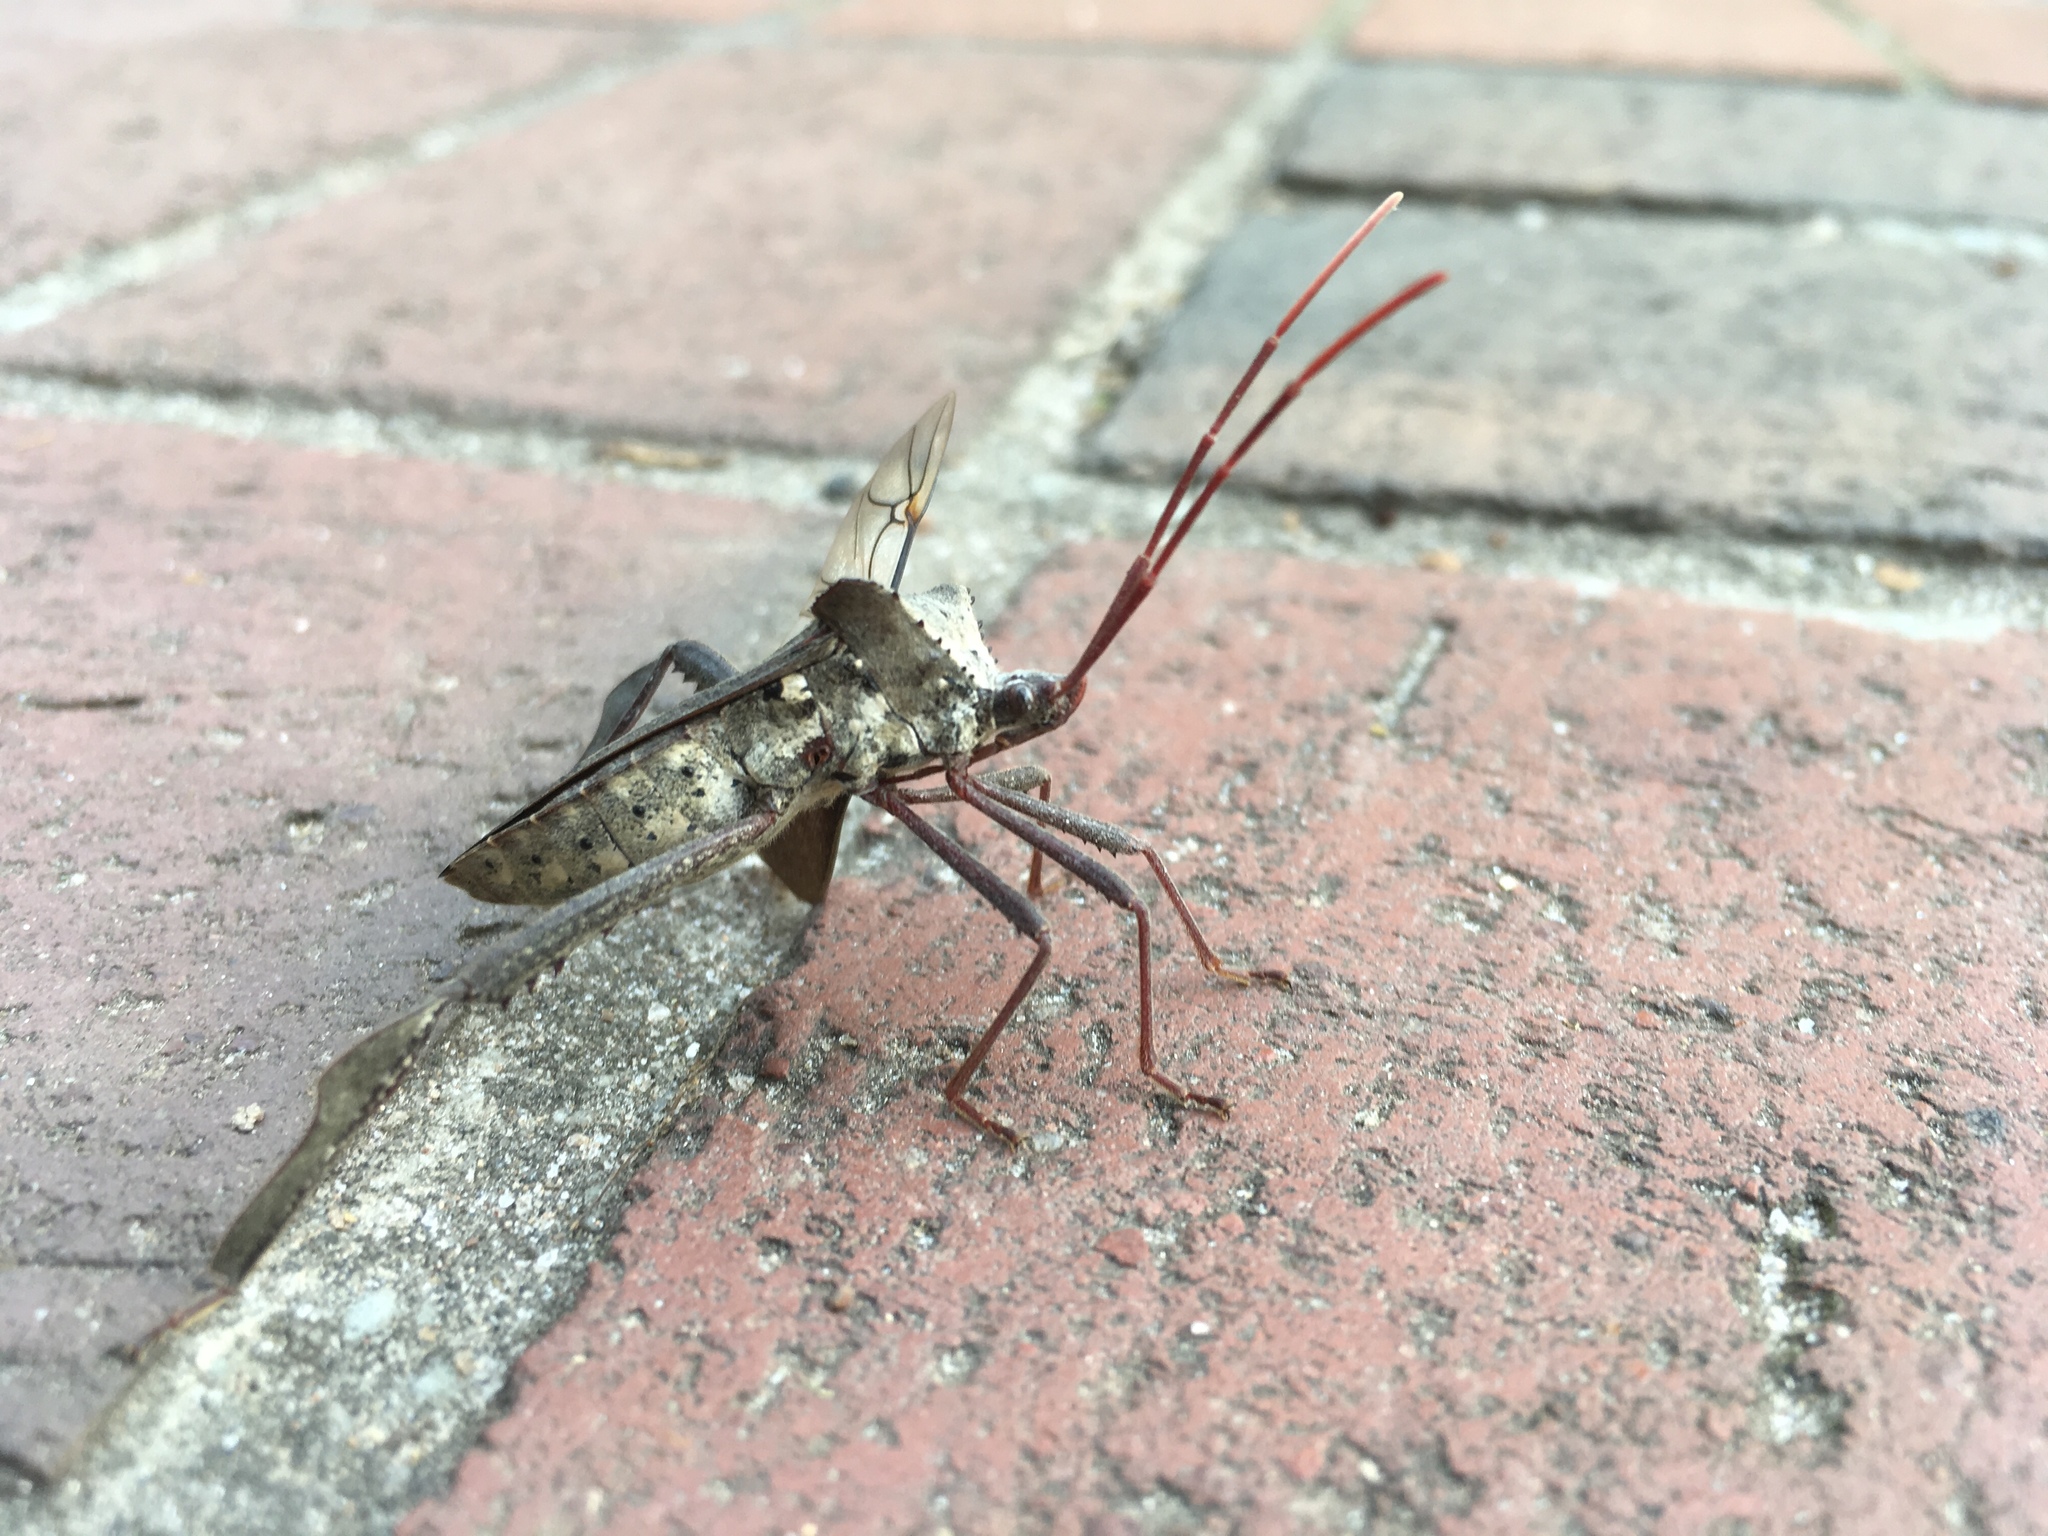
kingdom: Animalia
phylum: Arthropoda
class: Insecta
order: Hemiptera
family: Coreidae
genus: Acanthocephala
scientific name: Acanthocephala declivis
